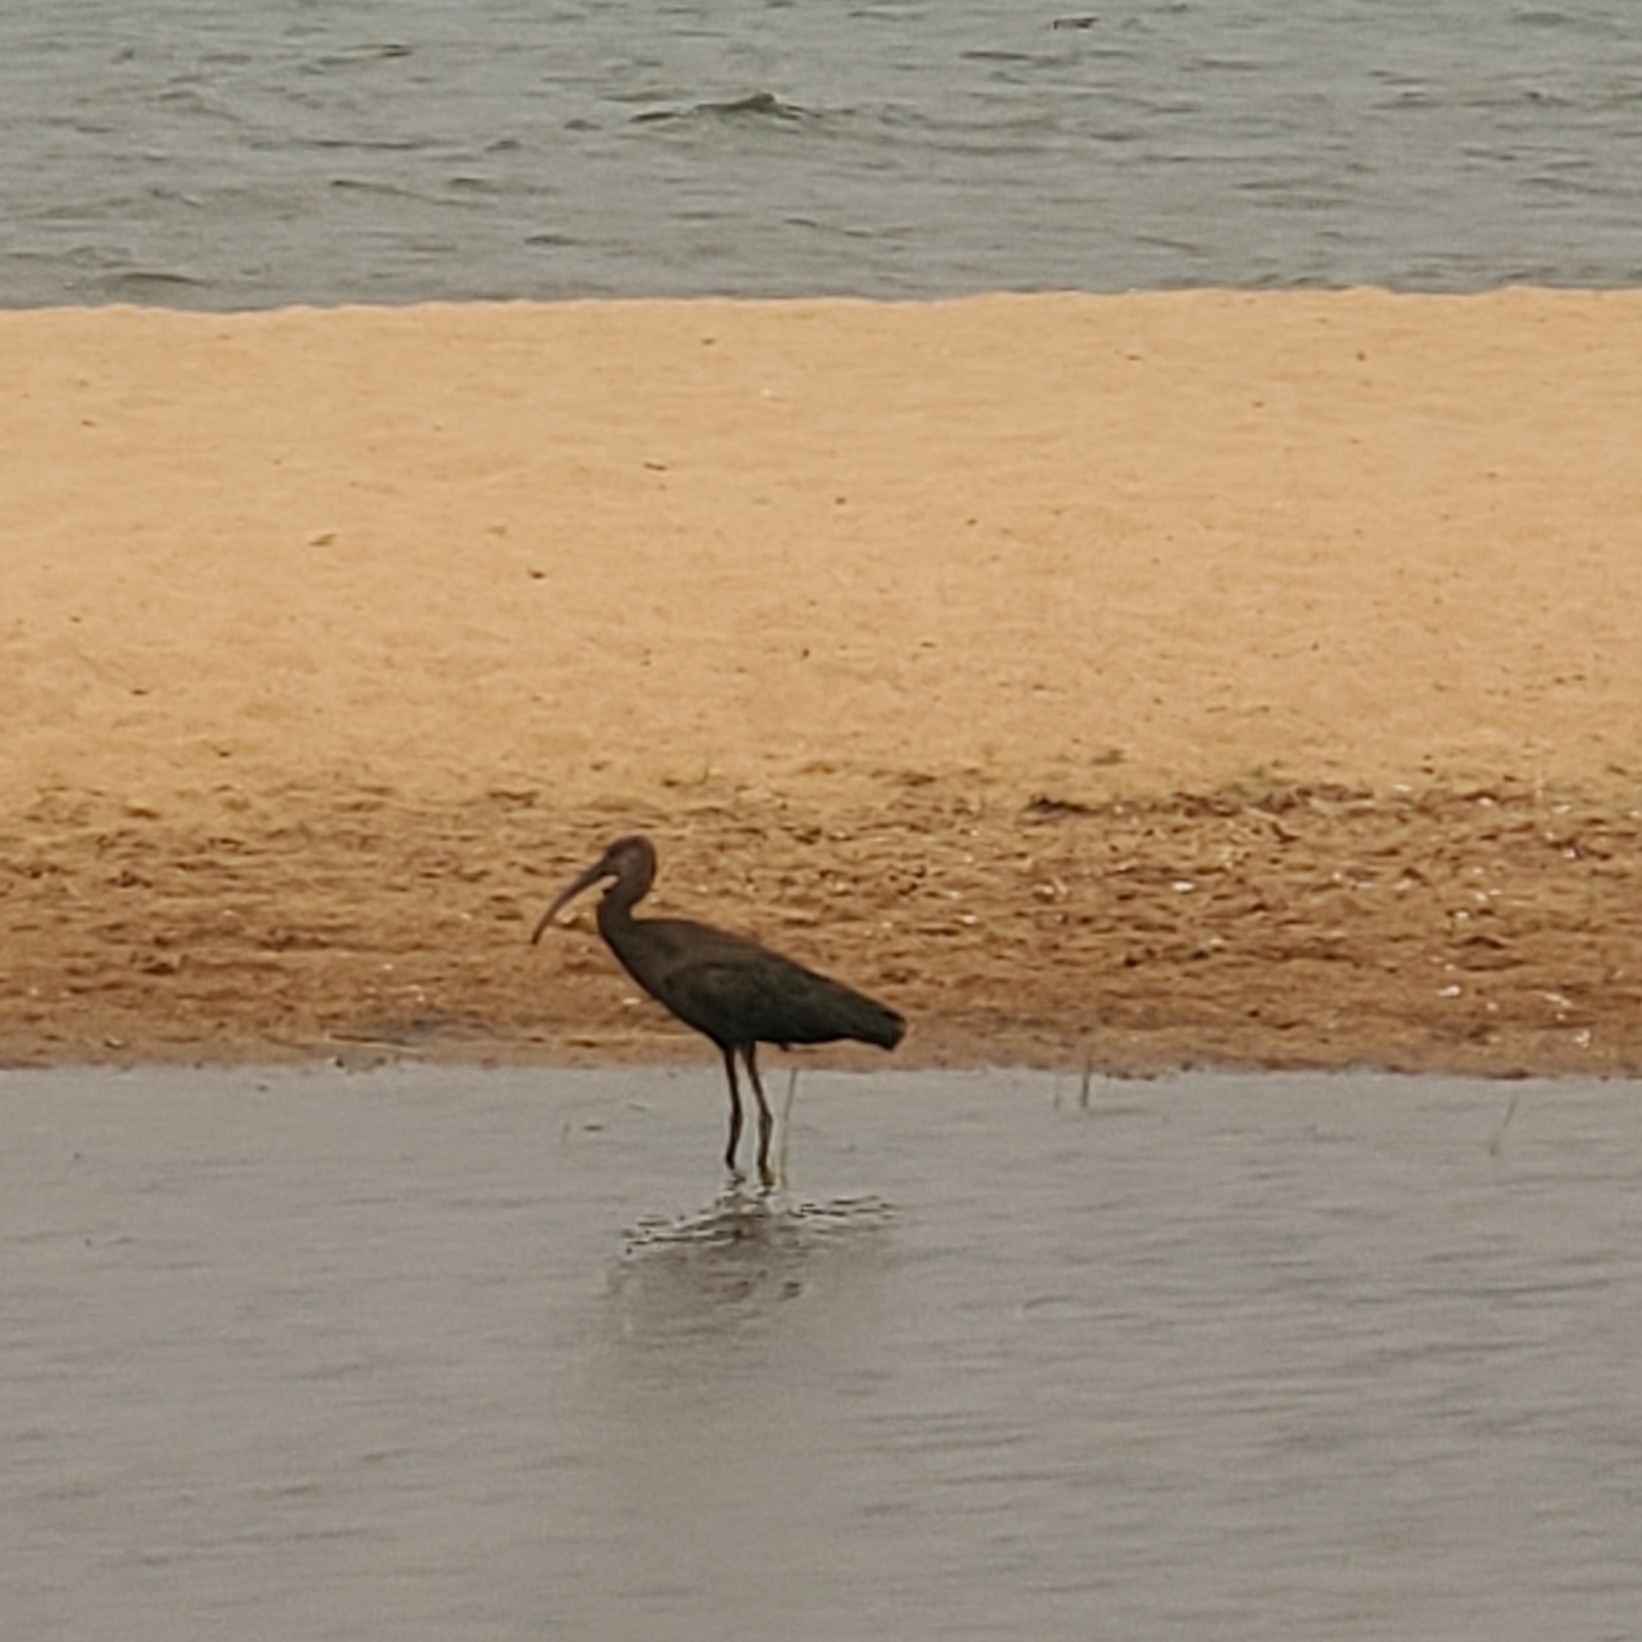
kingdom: Animalia
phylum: Chordata
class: Aves
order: Pelecaniformes
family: Threskiornithidae
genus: Plegadis
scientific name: Plegadis chihi
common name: White-faced ibis
